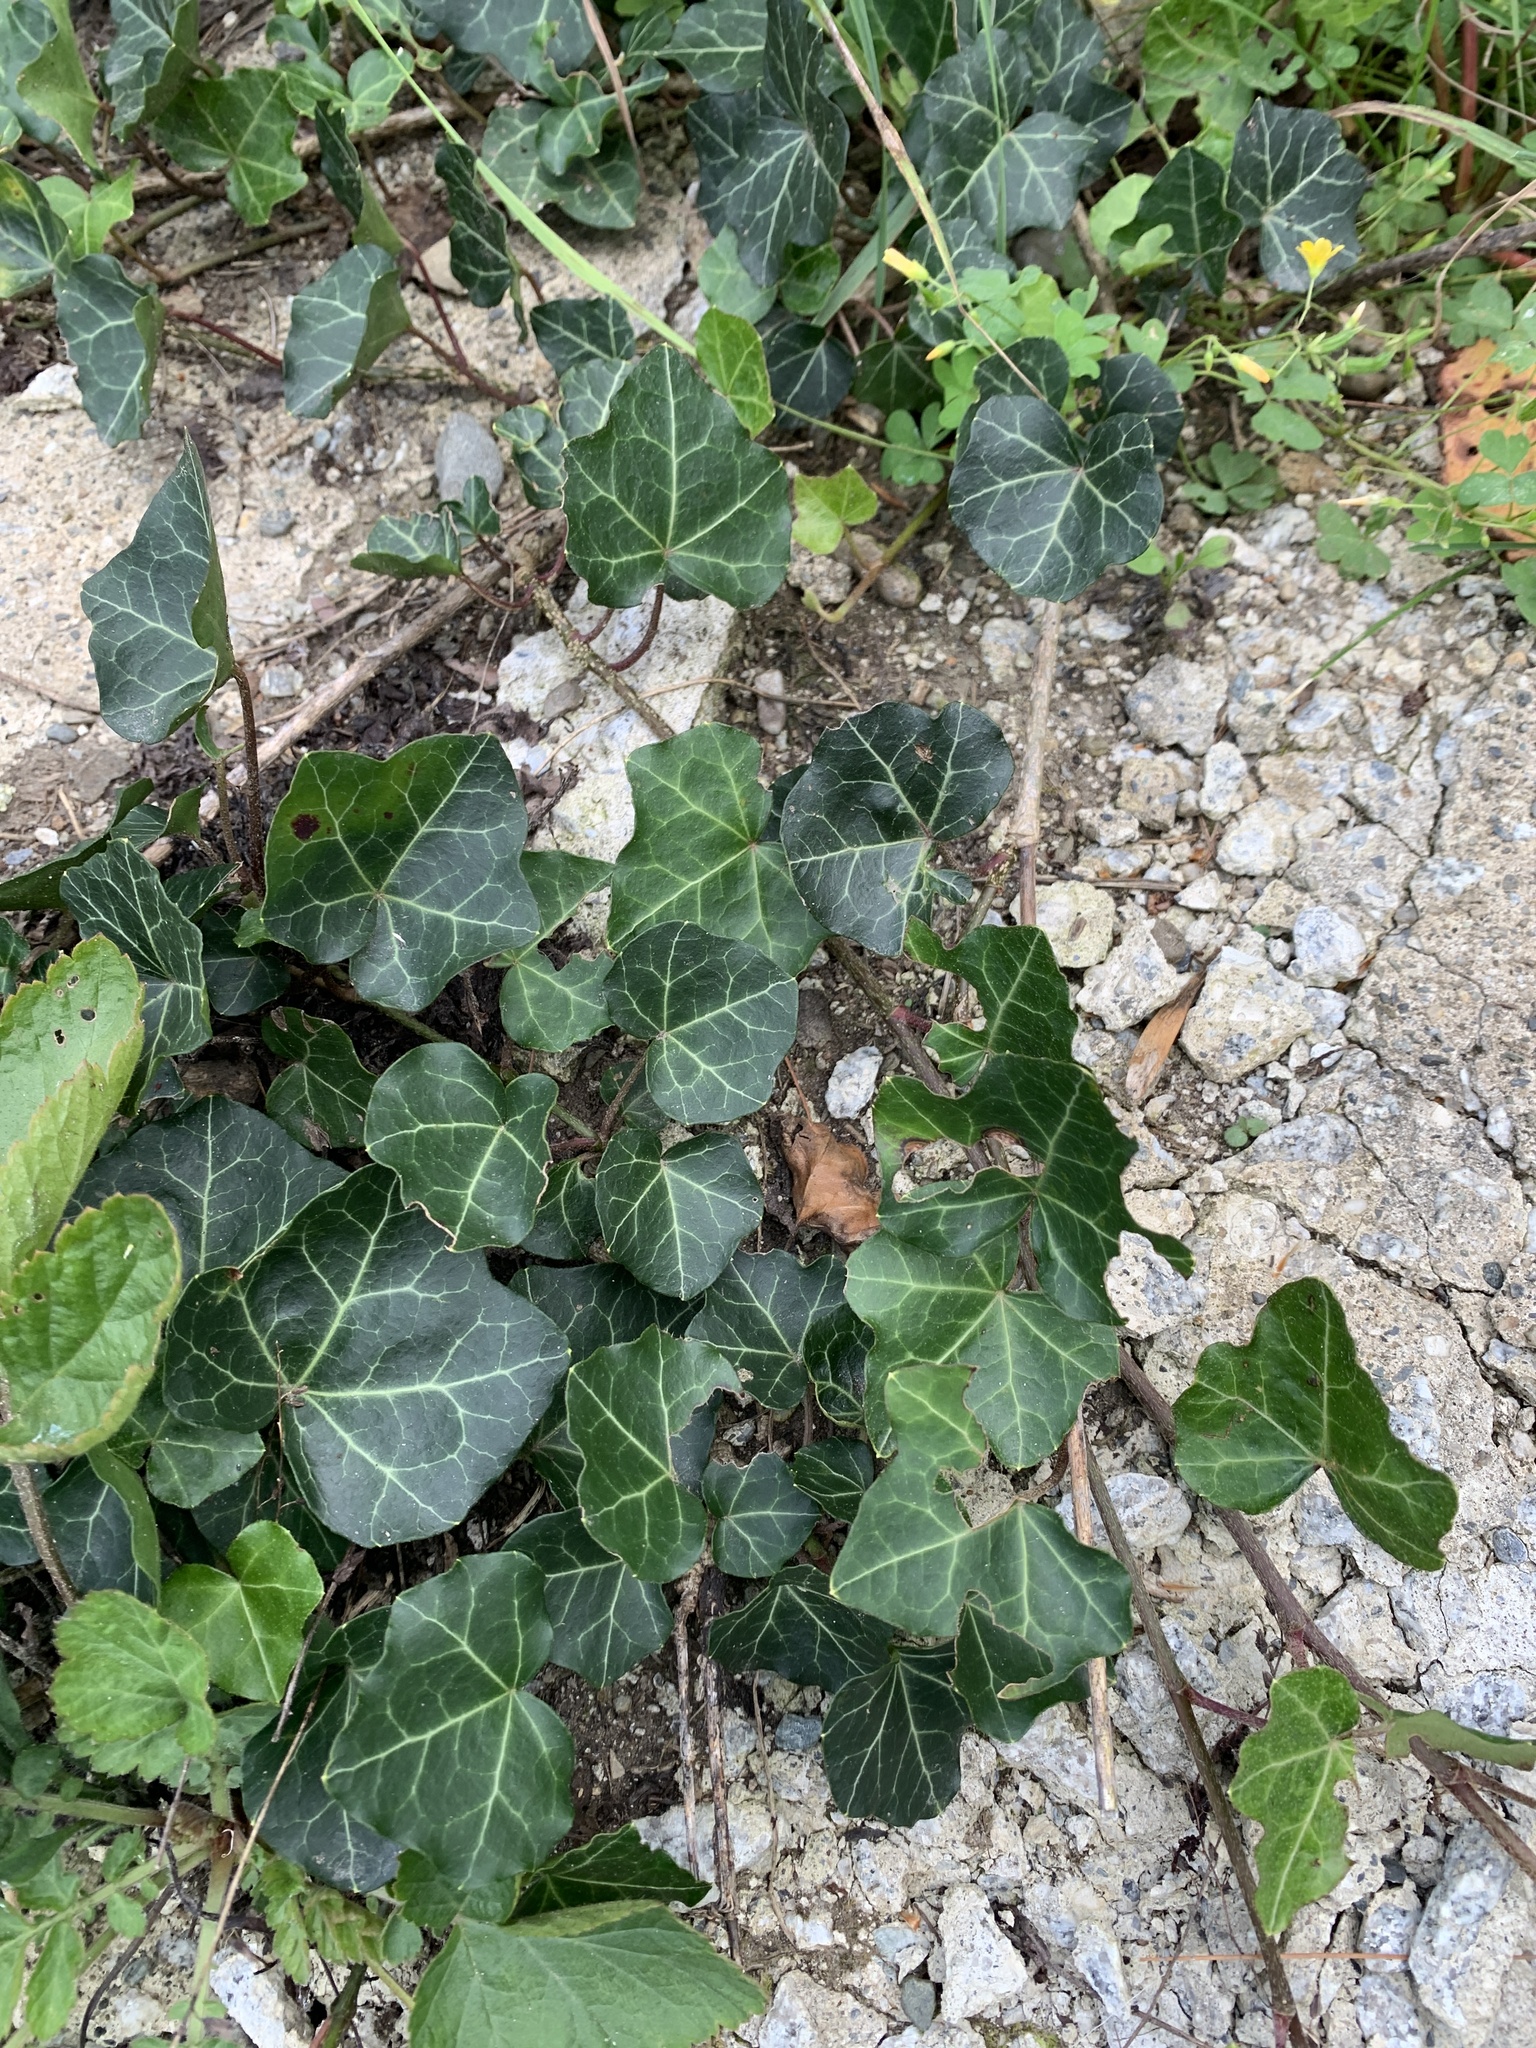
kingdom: Plantae
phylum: Tracheophyta
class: Magnoliopsida
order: Apiales
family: Araliaceae
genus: Hedera
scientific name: Hedera helix
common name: Ivy
